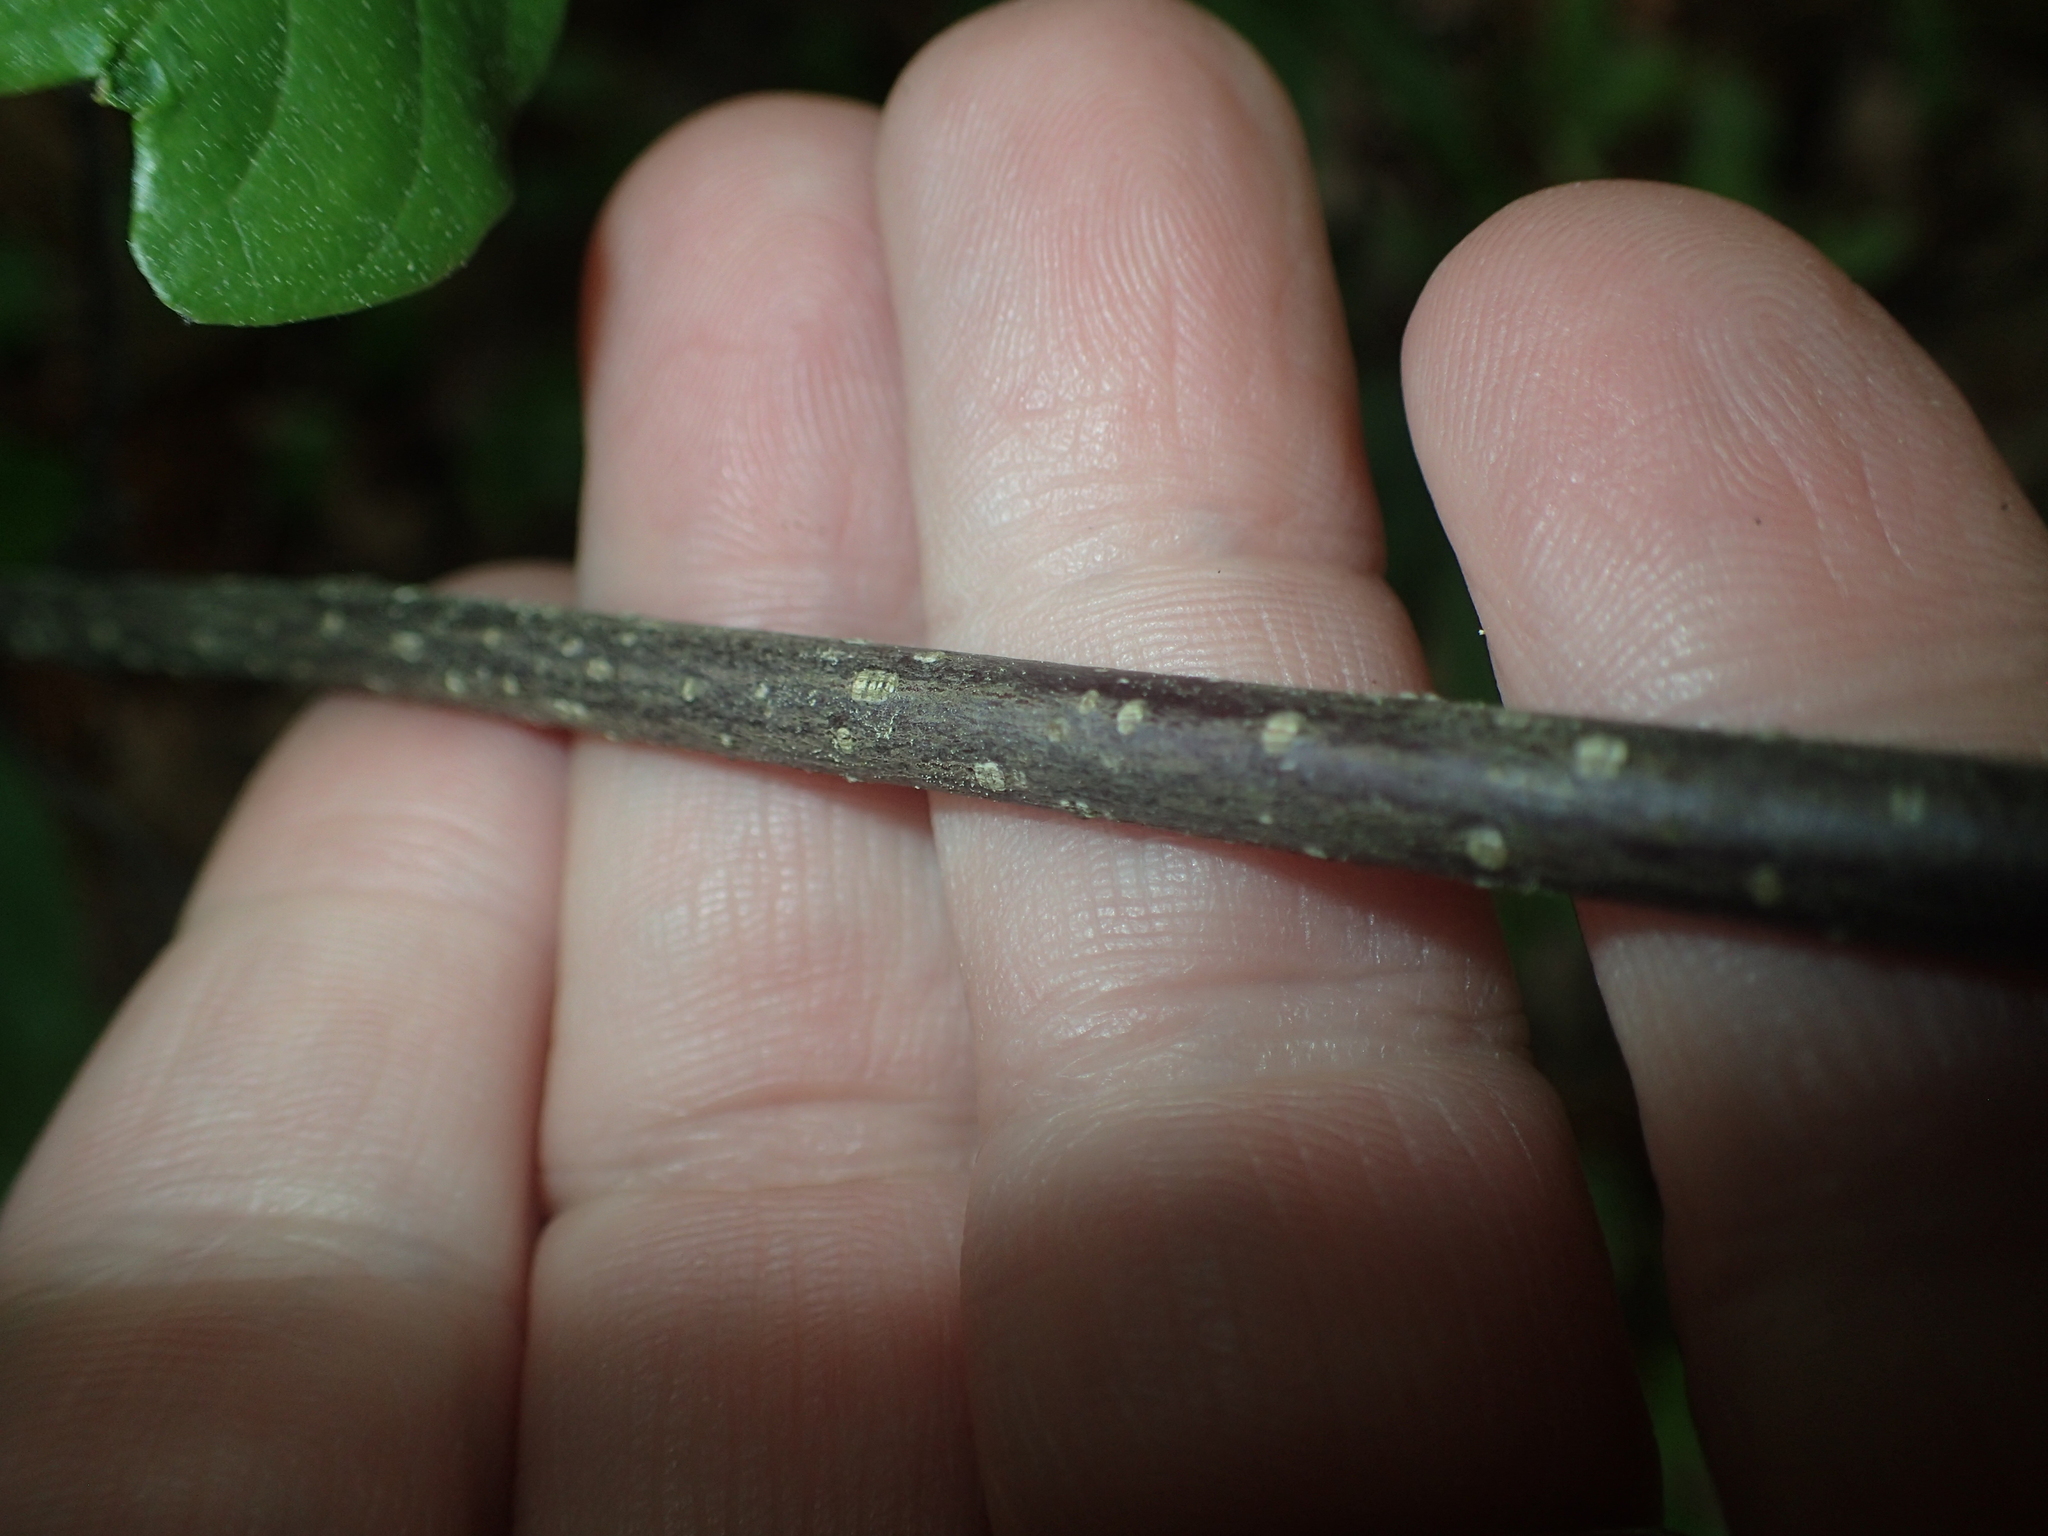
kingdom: Plantae
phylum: Tracheophyta
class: Magnoliopsida
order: Rosales
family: Rhamnaceae
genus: Frangula
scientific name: Frangula alnus
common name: Alder buckthorn
